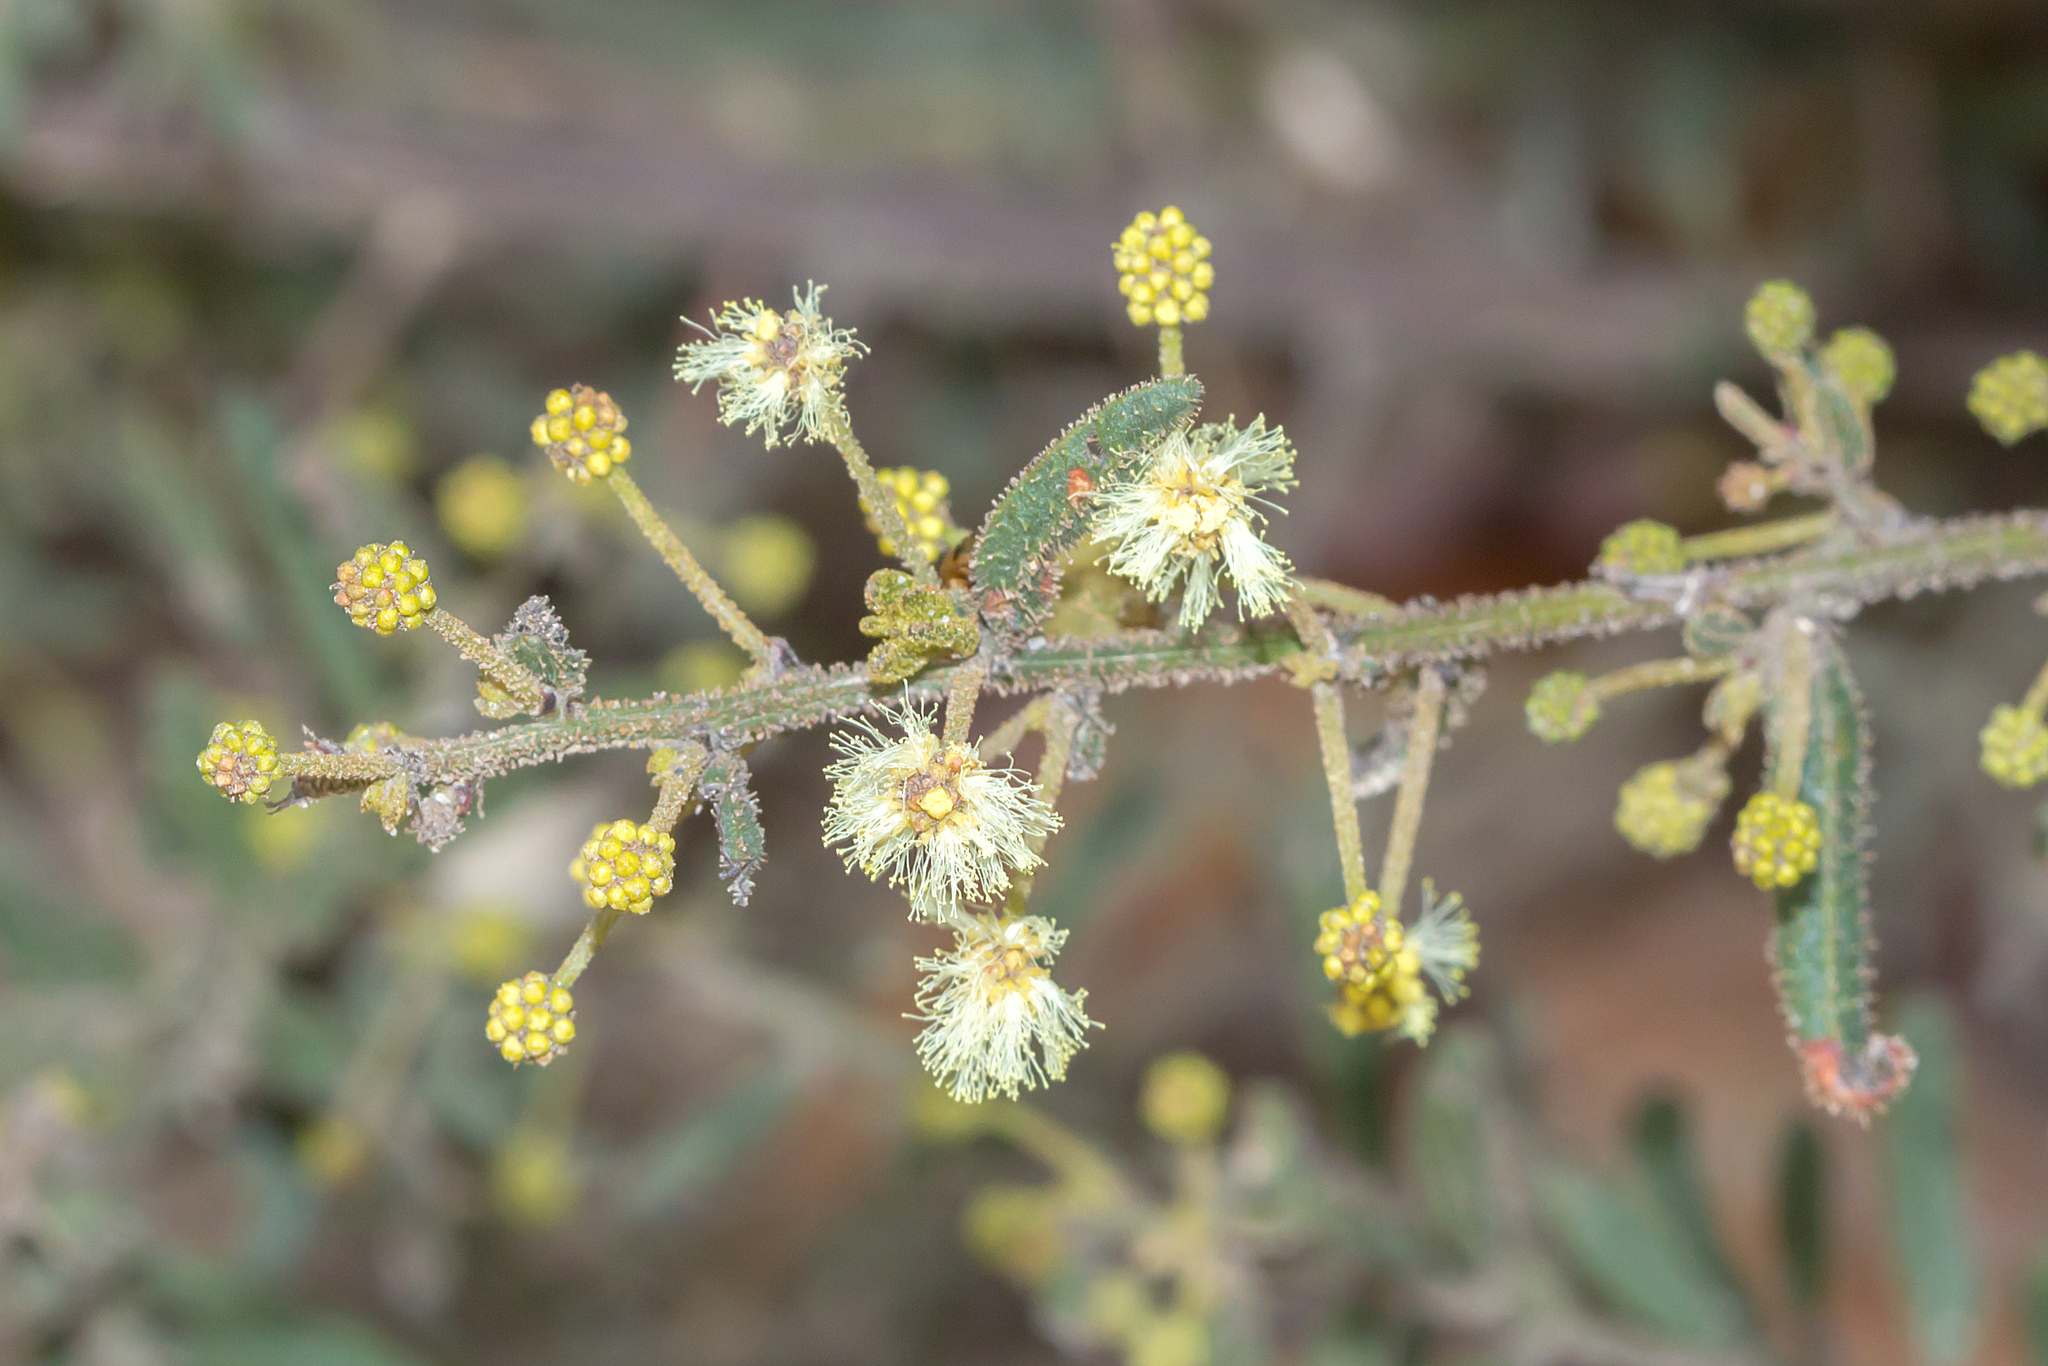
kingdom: Plantae
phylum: Tracheophyta
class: Magnoliopsida
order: Fabales
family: Fabaceae
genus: Acacia
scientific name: Acacia aspera
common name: Rough wattle
